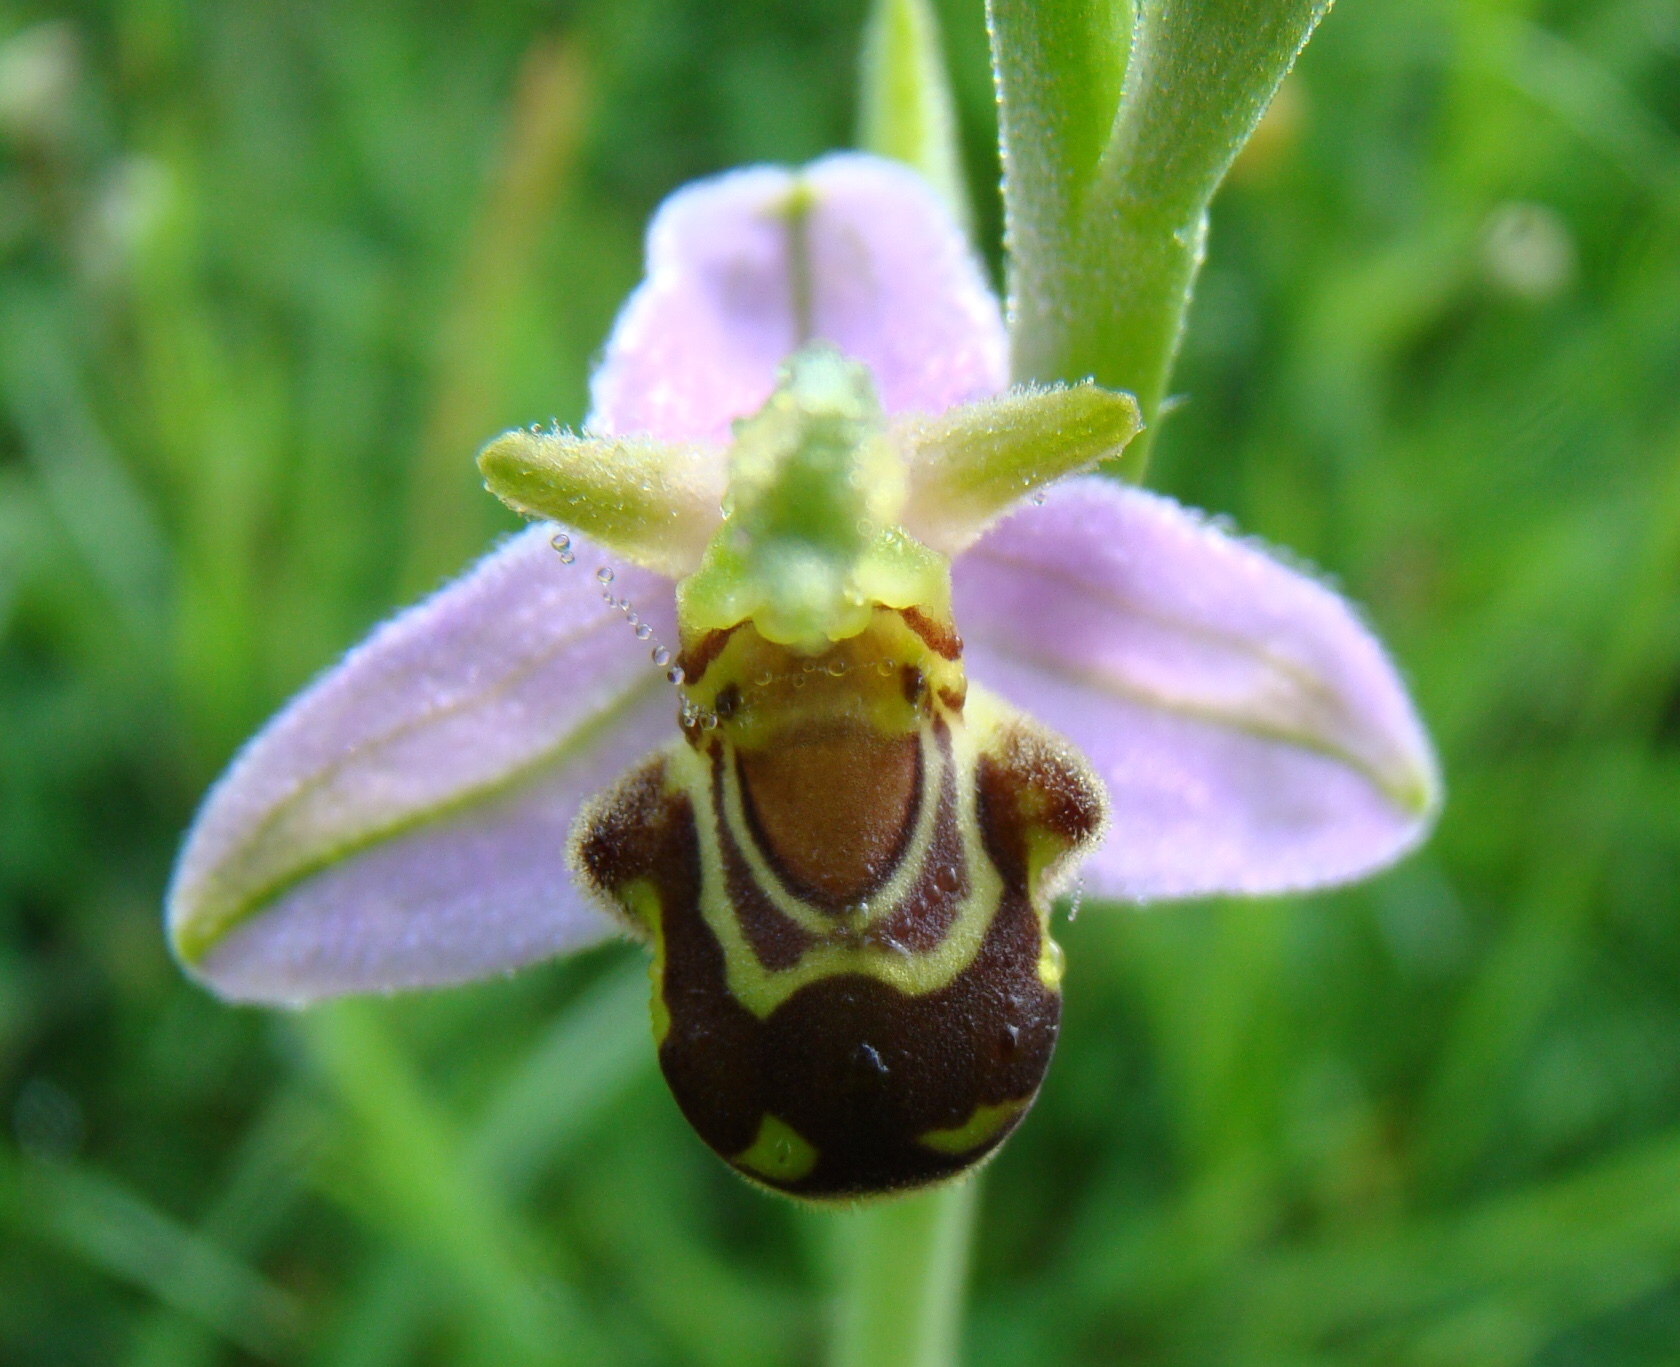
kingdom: Plantae
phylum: Tracheophyta
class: Liliopsida
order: Asparagales
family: Orchidaceae
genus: Ophrys
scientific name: Ophrys apifera
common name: Bee orchid
